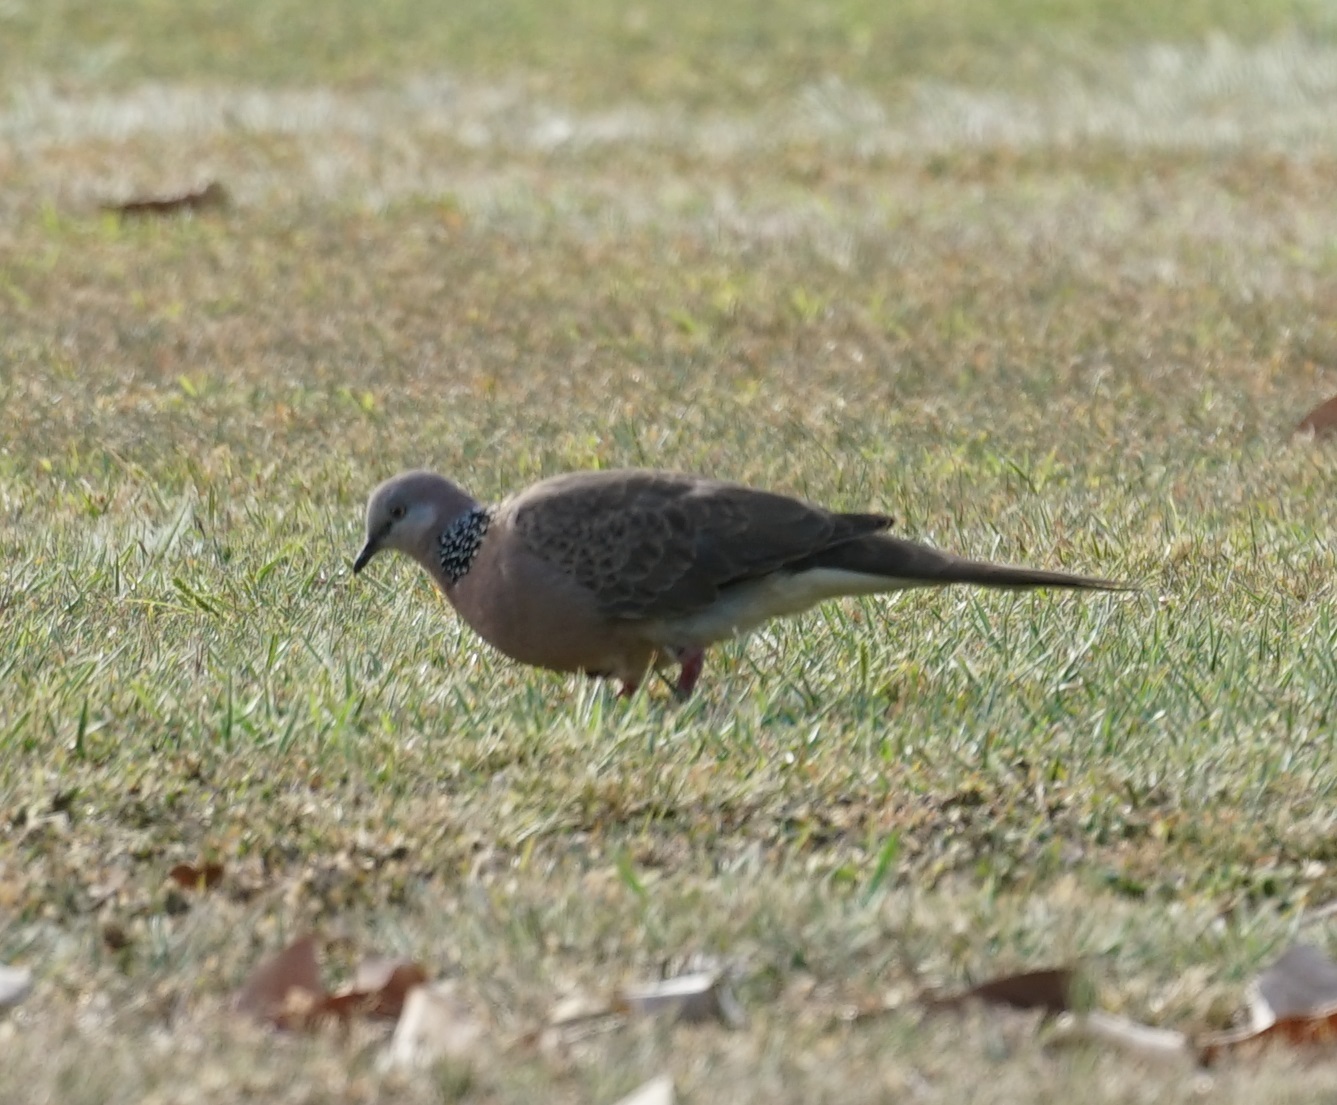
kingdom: Animalia
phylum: Chordata
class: Aves
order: Columbiformes
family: Columbidae
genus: Spilopelia
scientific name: Spilopelia chinensis
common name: Spotted dove
